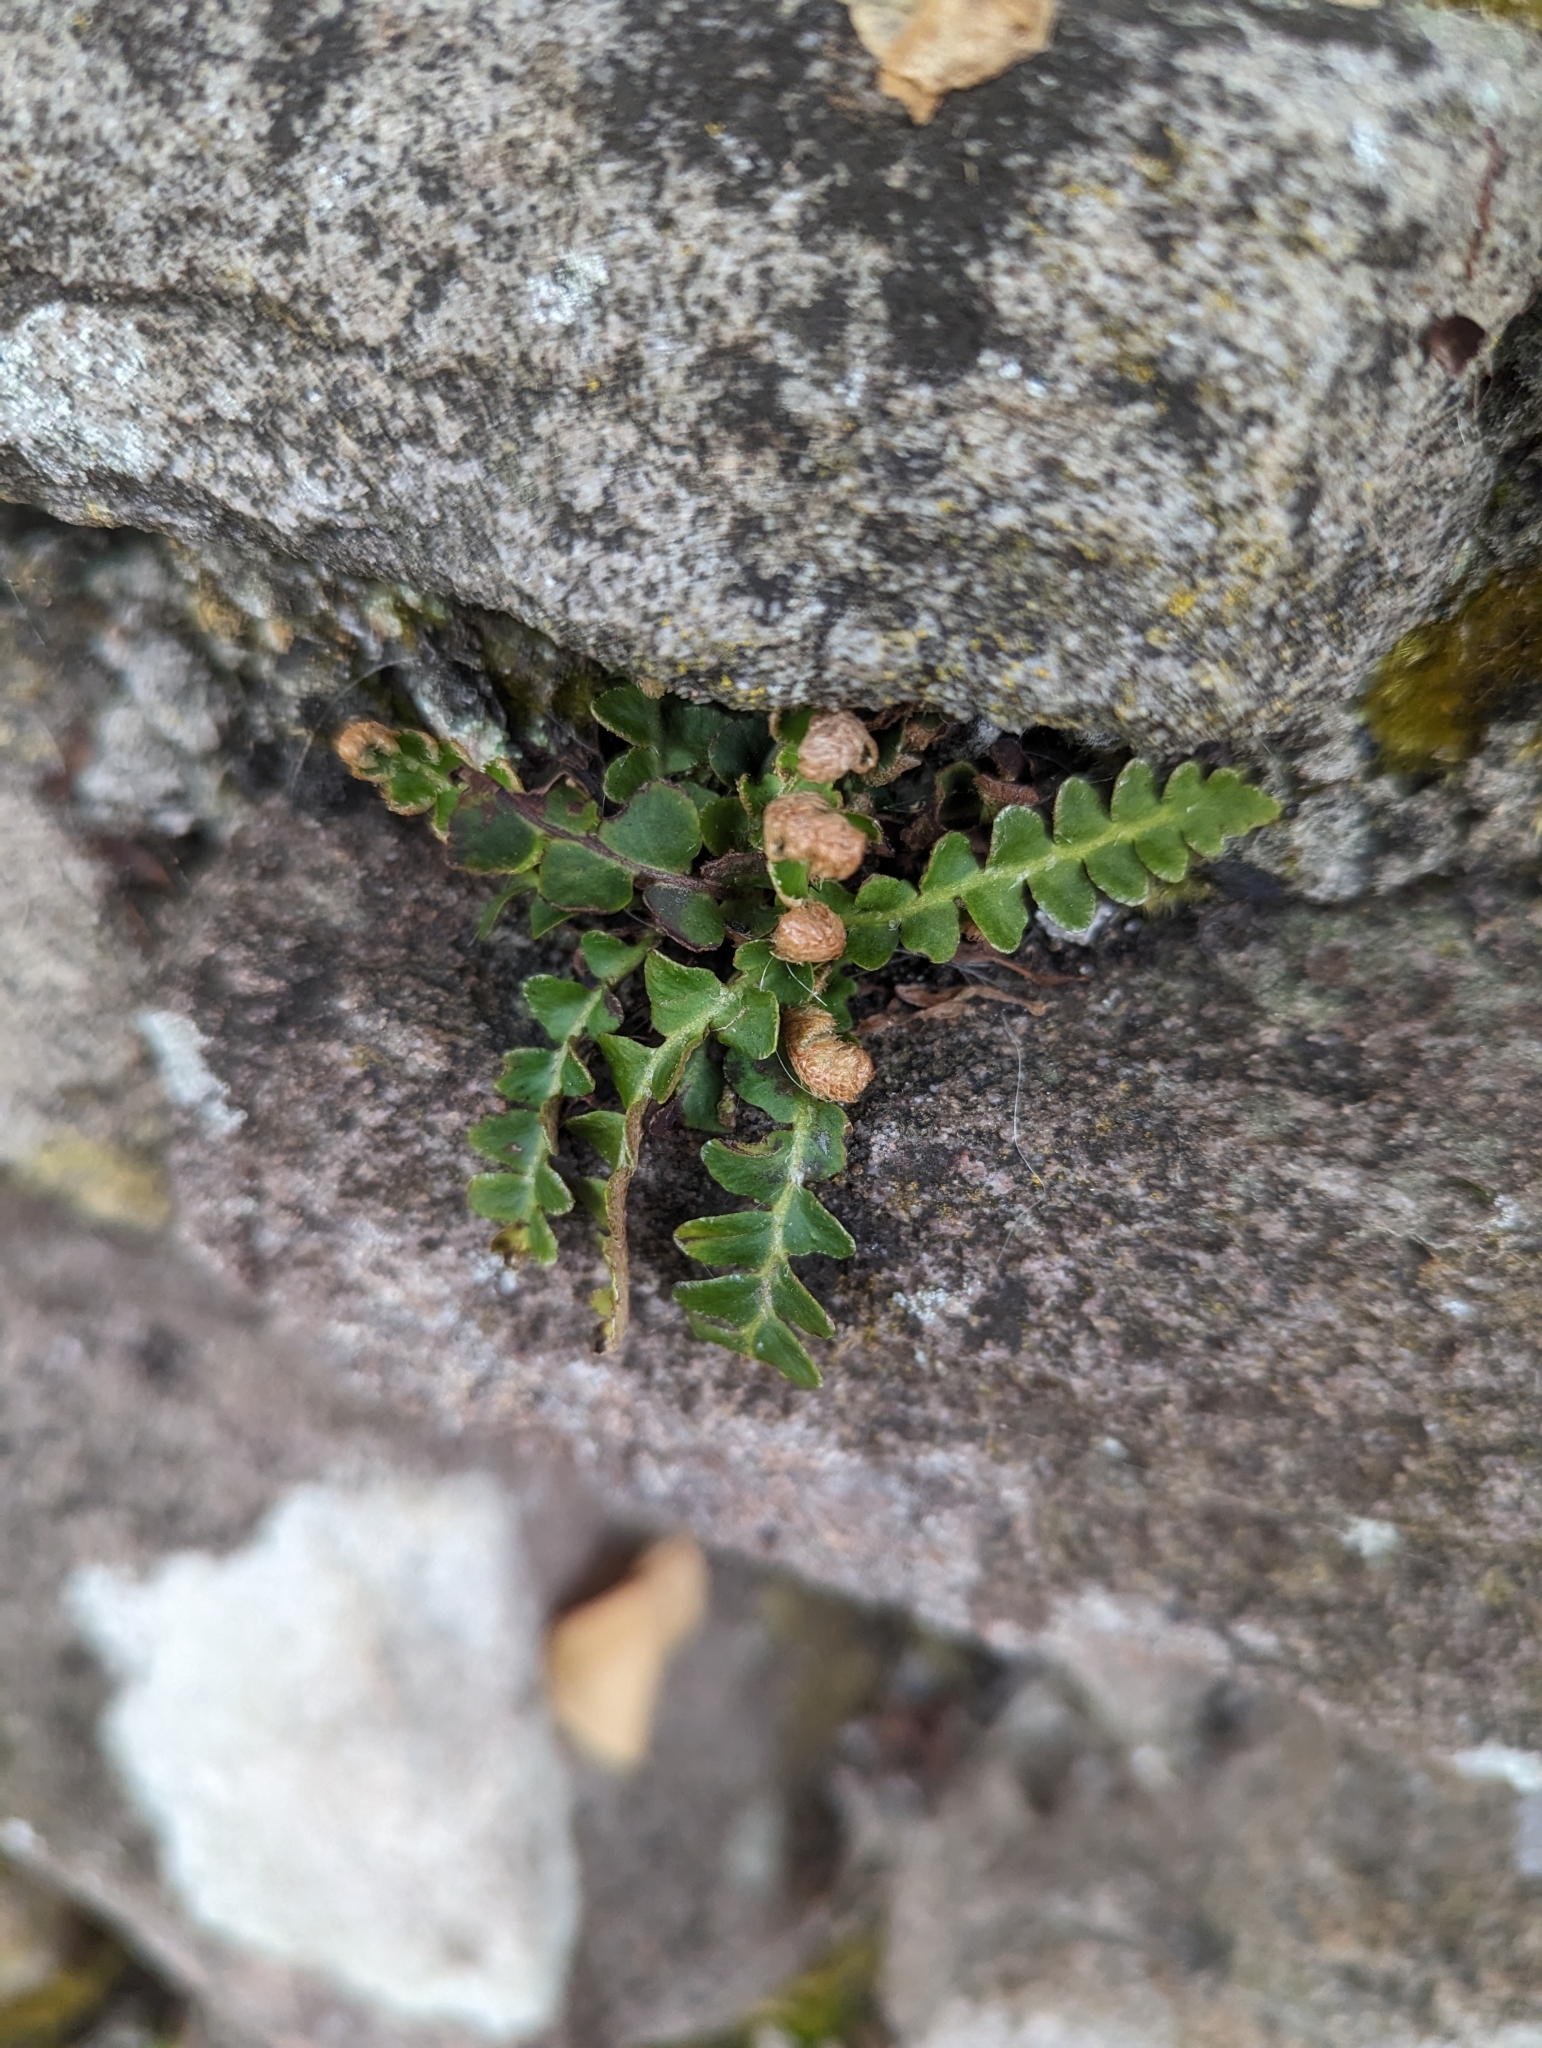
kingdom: Plantae
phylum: Tracheophyta
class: Polypodiopsida
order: Polypodiales
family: Aspleniaceae
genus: Asplenium
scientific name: Asplenium ceterach
